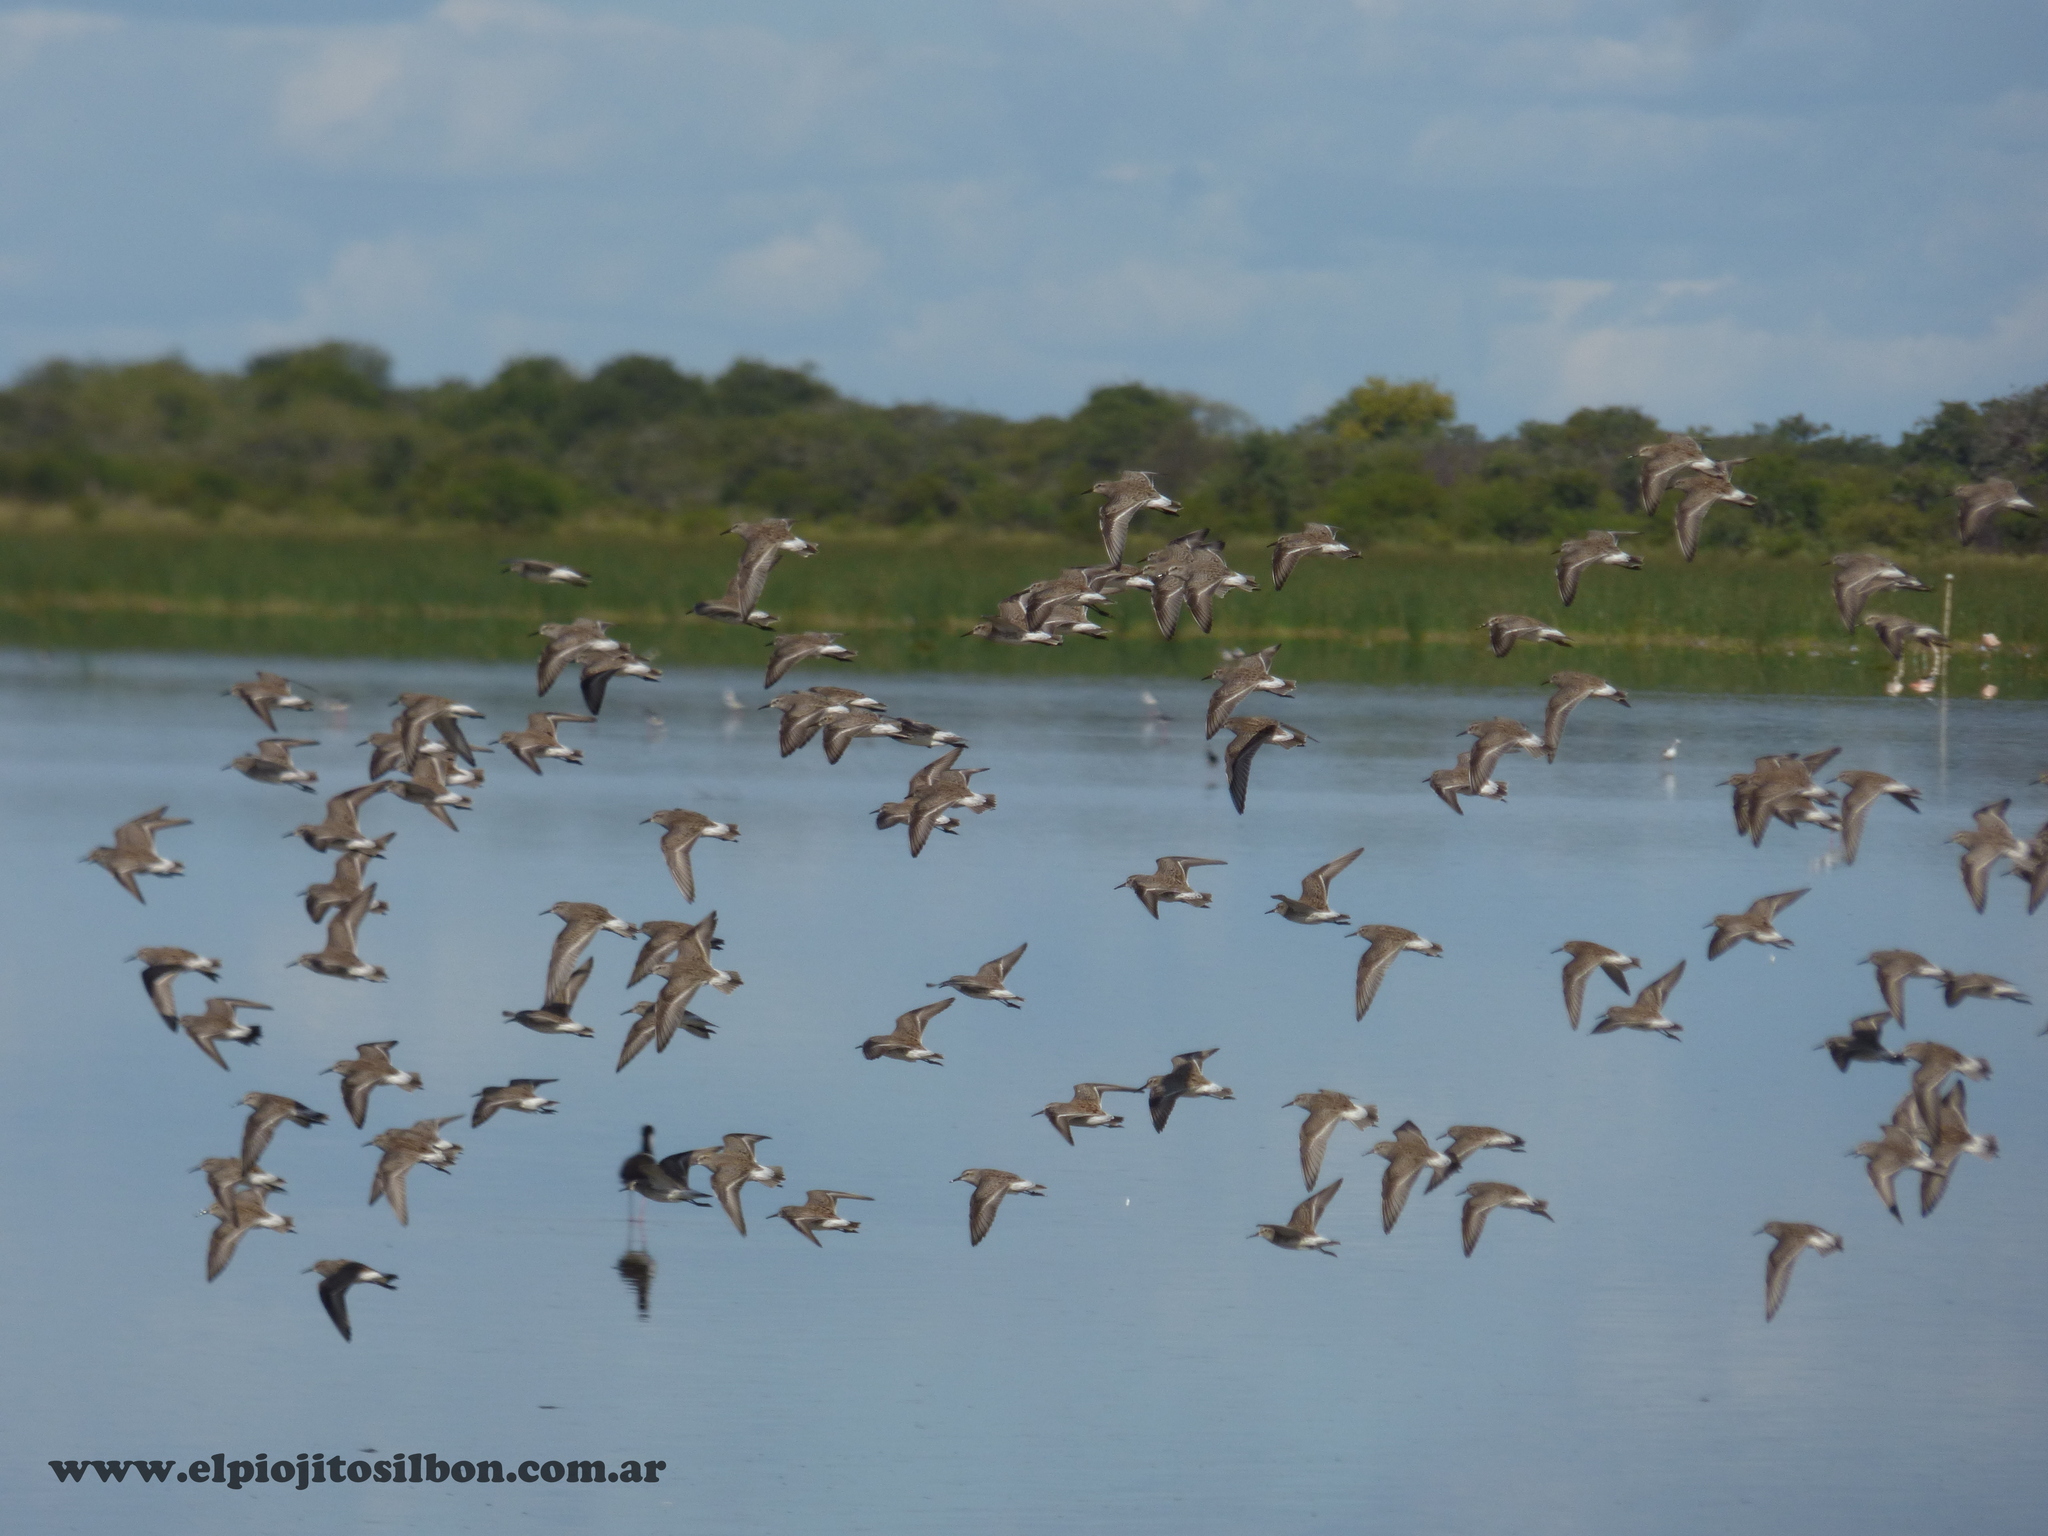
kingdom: Animalia
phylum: Chordata
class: Aves
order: Charadriiformes
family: Scolopacidae
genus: Calidris
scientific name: Calidris fuscicollis
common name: White-rumped sandpiper
